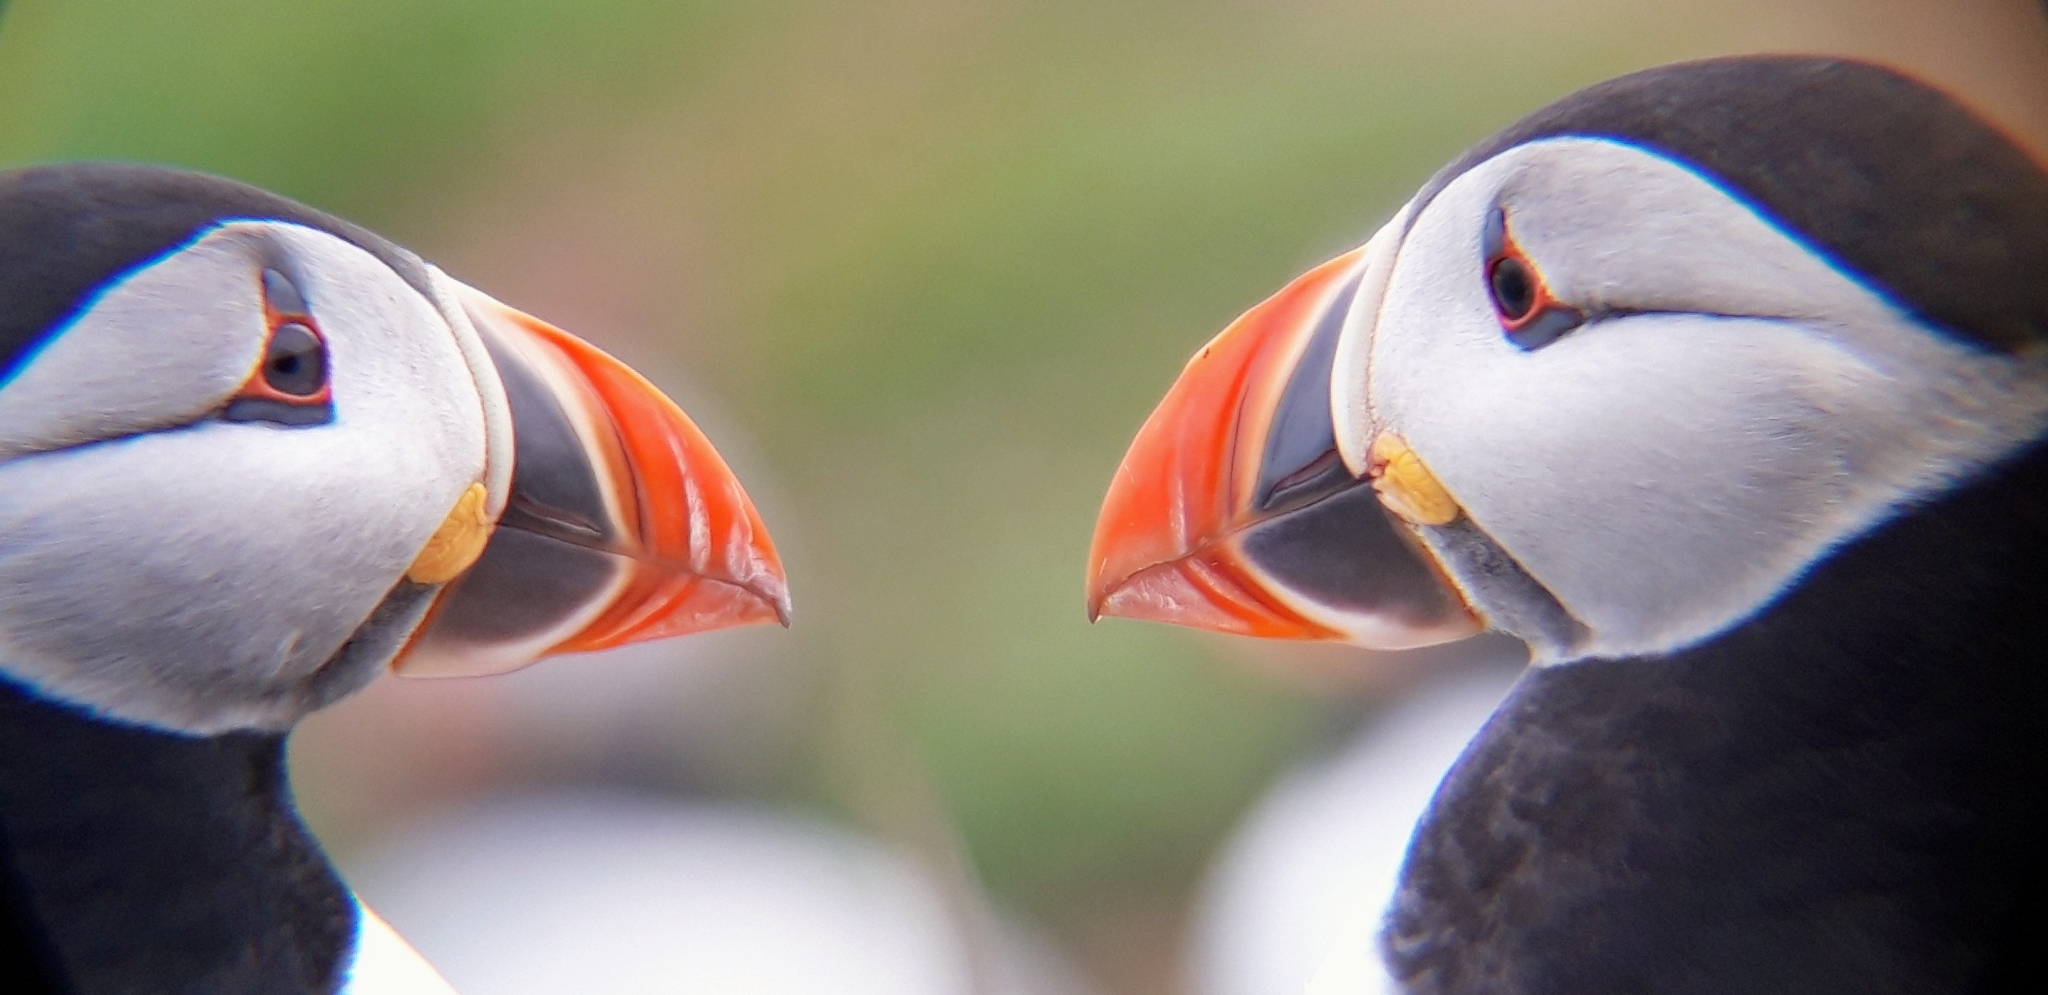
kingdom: Animalia
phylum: Chordata
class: Aves
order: Charadriiformes
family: Alcidae
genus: Fratercula
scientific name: Fratercula arctica
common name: Atlantic puffin
